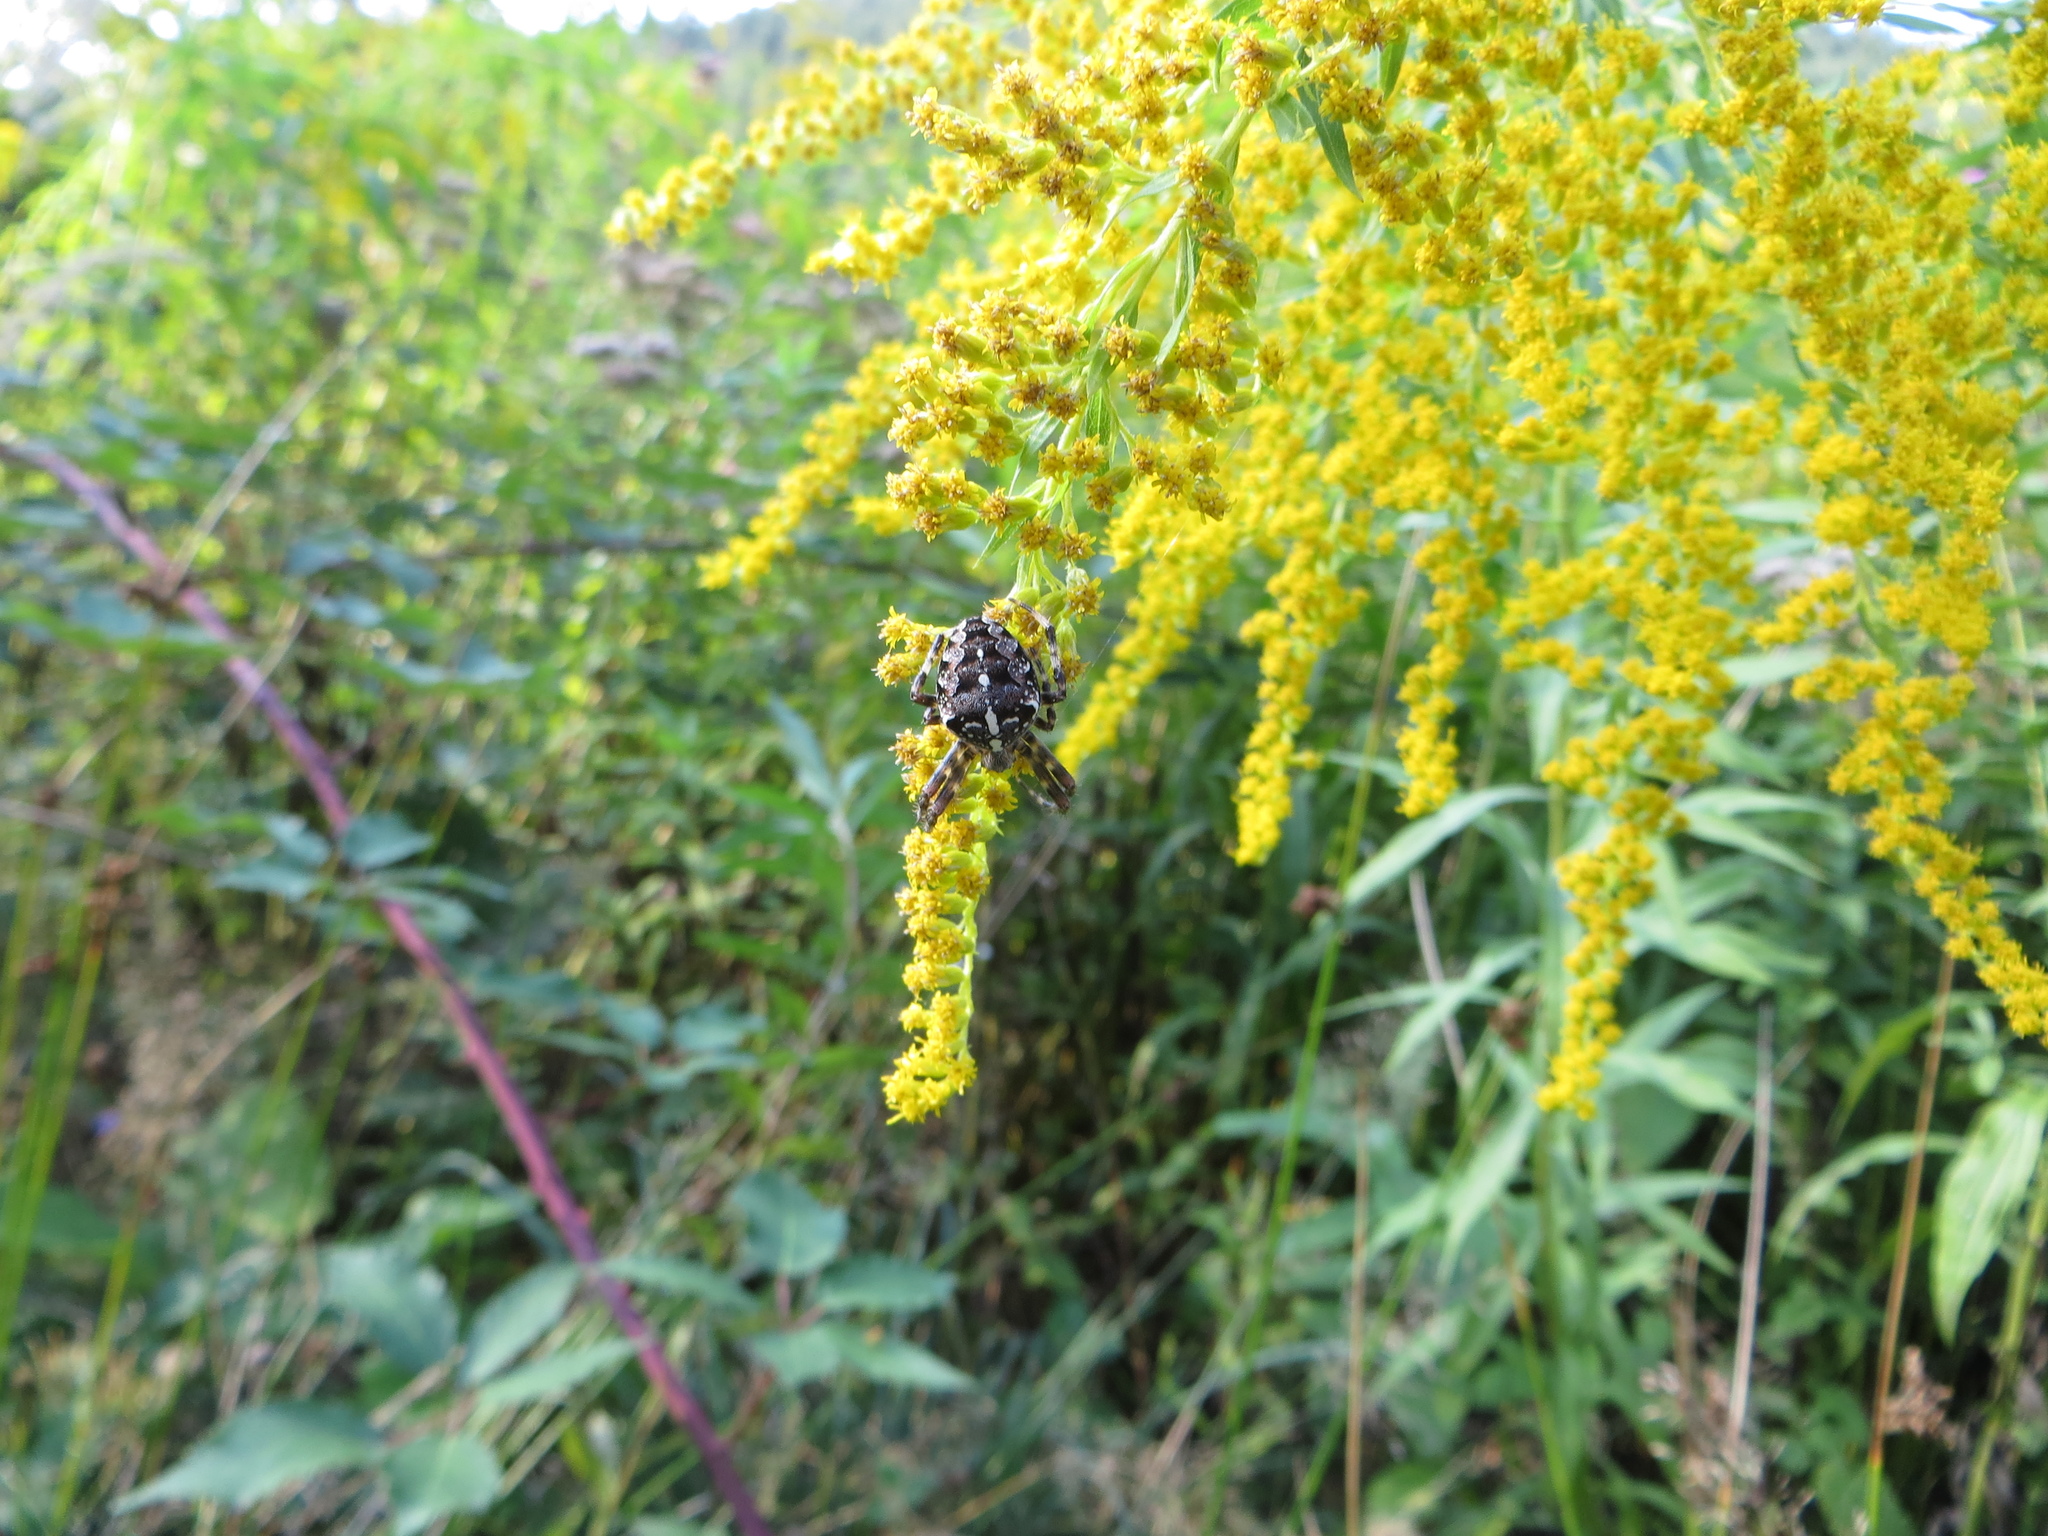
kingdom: Animalia
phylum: Arthropoda
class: Arachnida
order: Araneae
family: Araneidae
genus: Araneus
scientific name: Araneus diadematus
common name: Cross orbweaver
